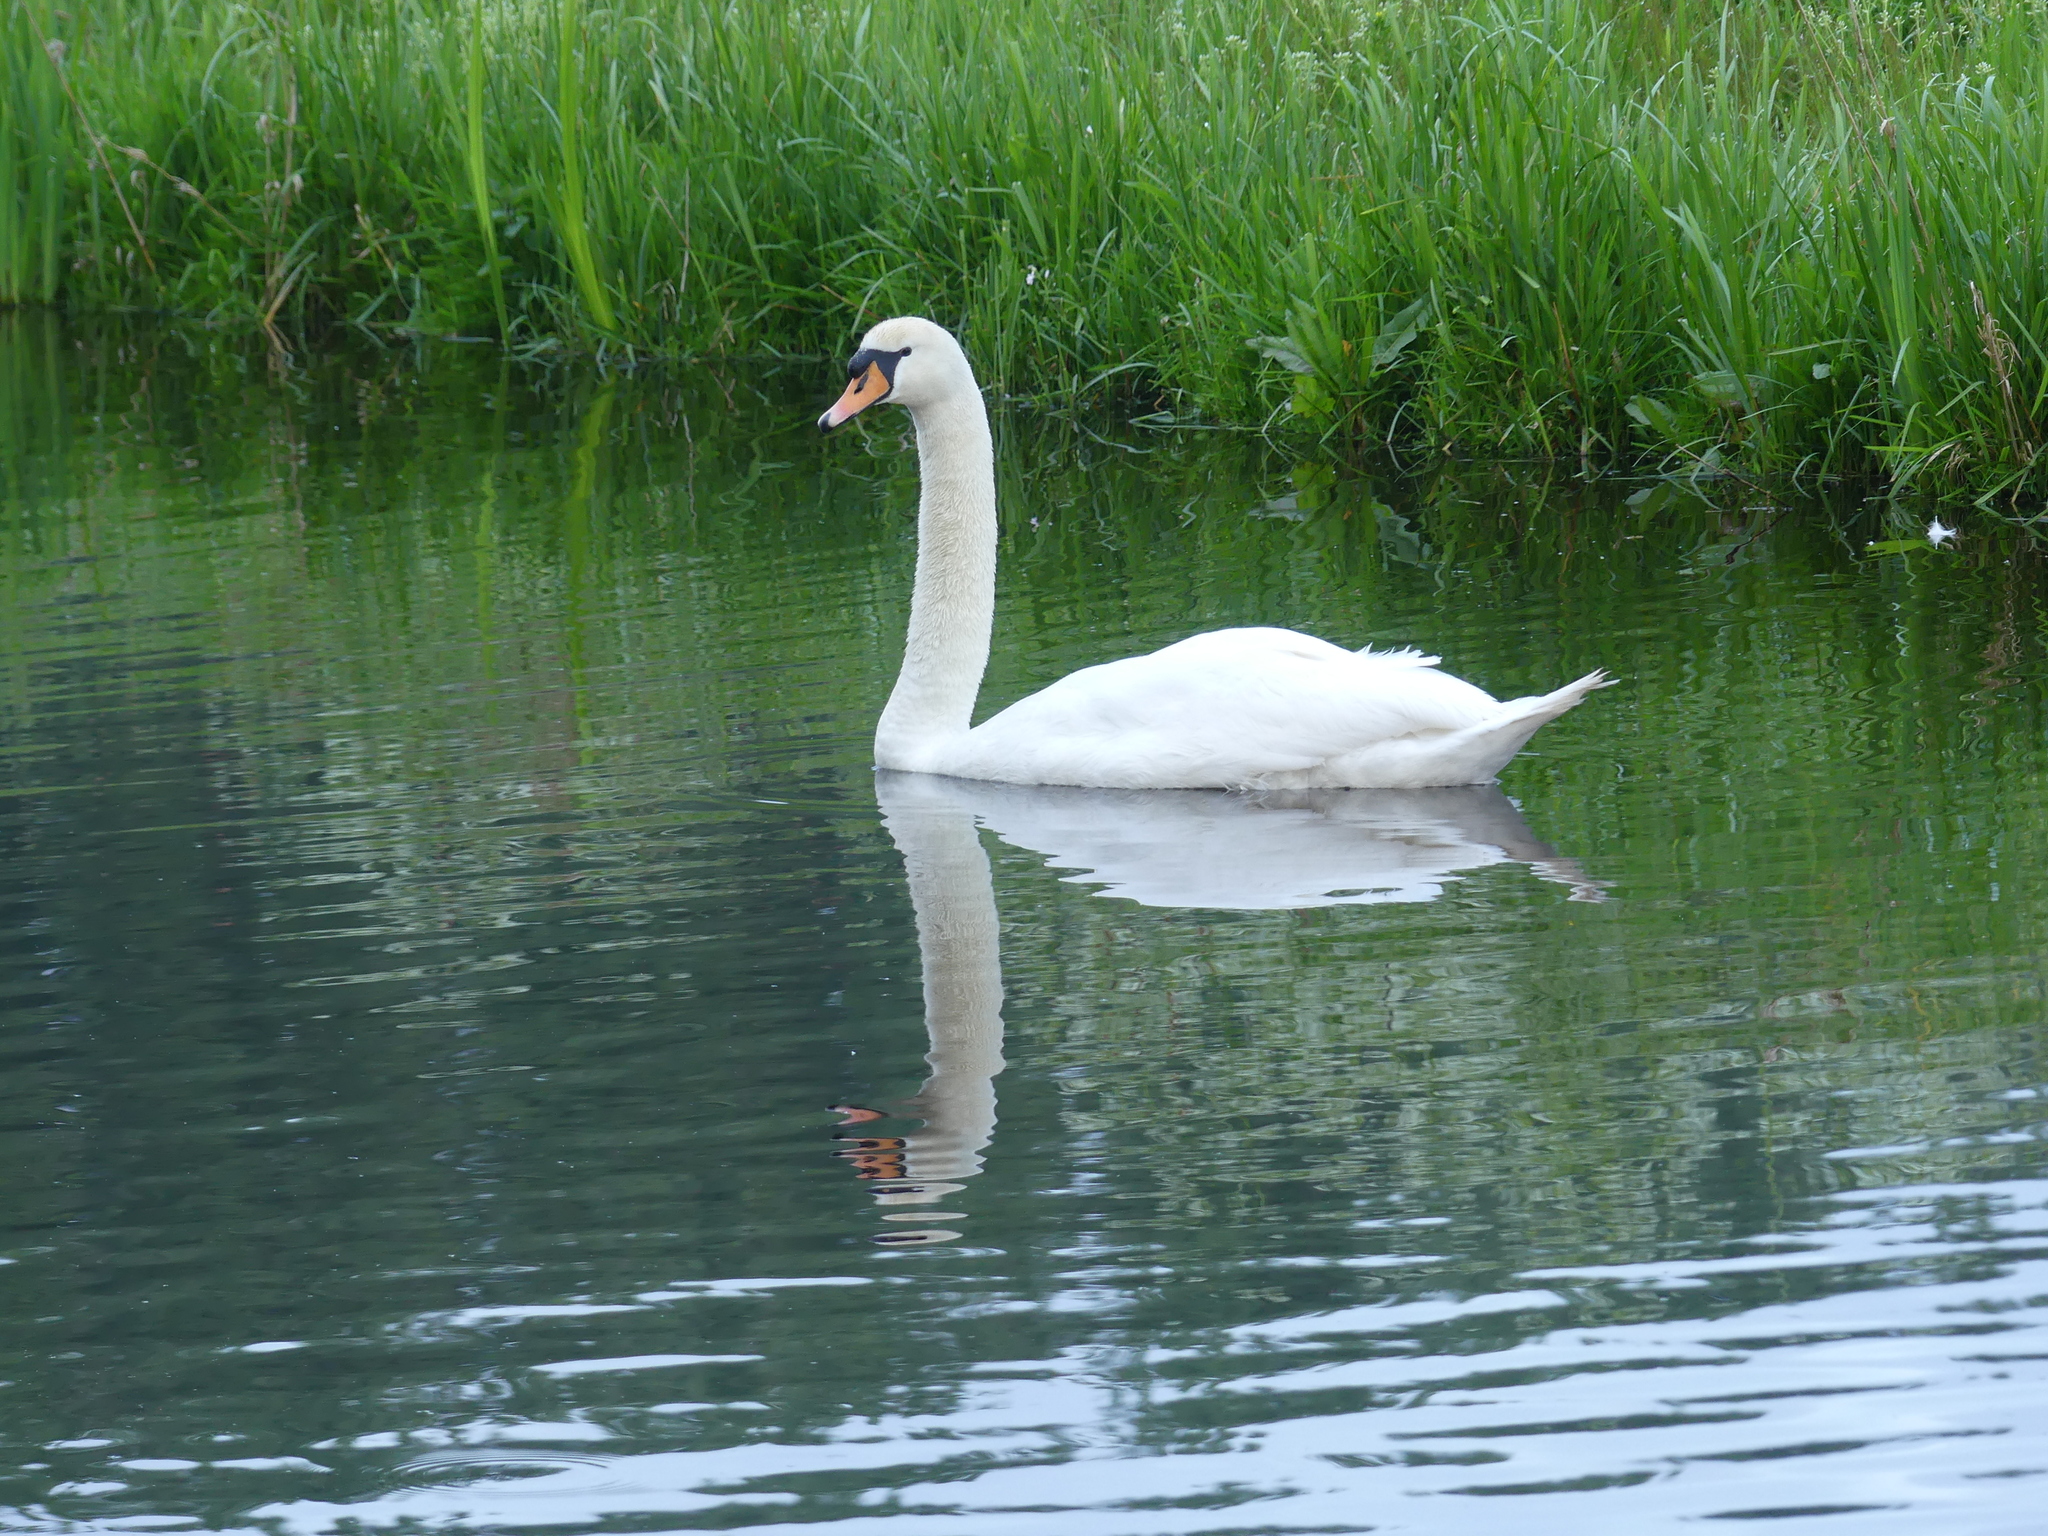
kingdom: Animalia
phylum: Chordata
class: Aves
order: Anseriformes
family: Anatidae
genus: Cygnus
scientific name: Cygnus olor
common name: Mute swan
